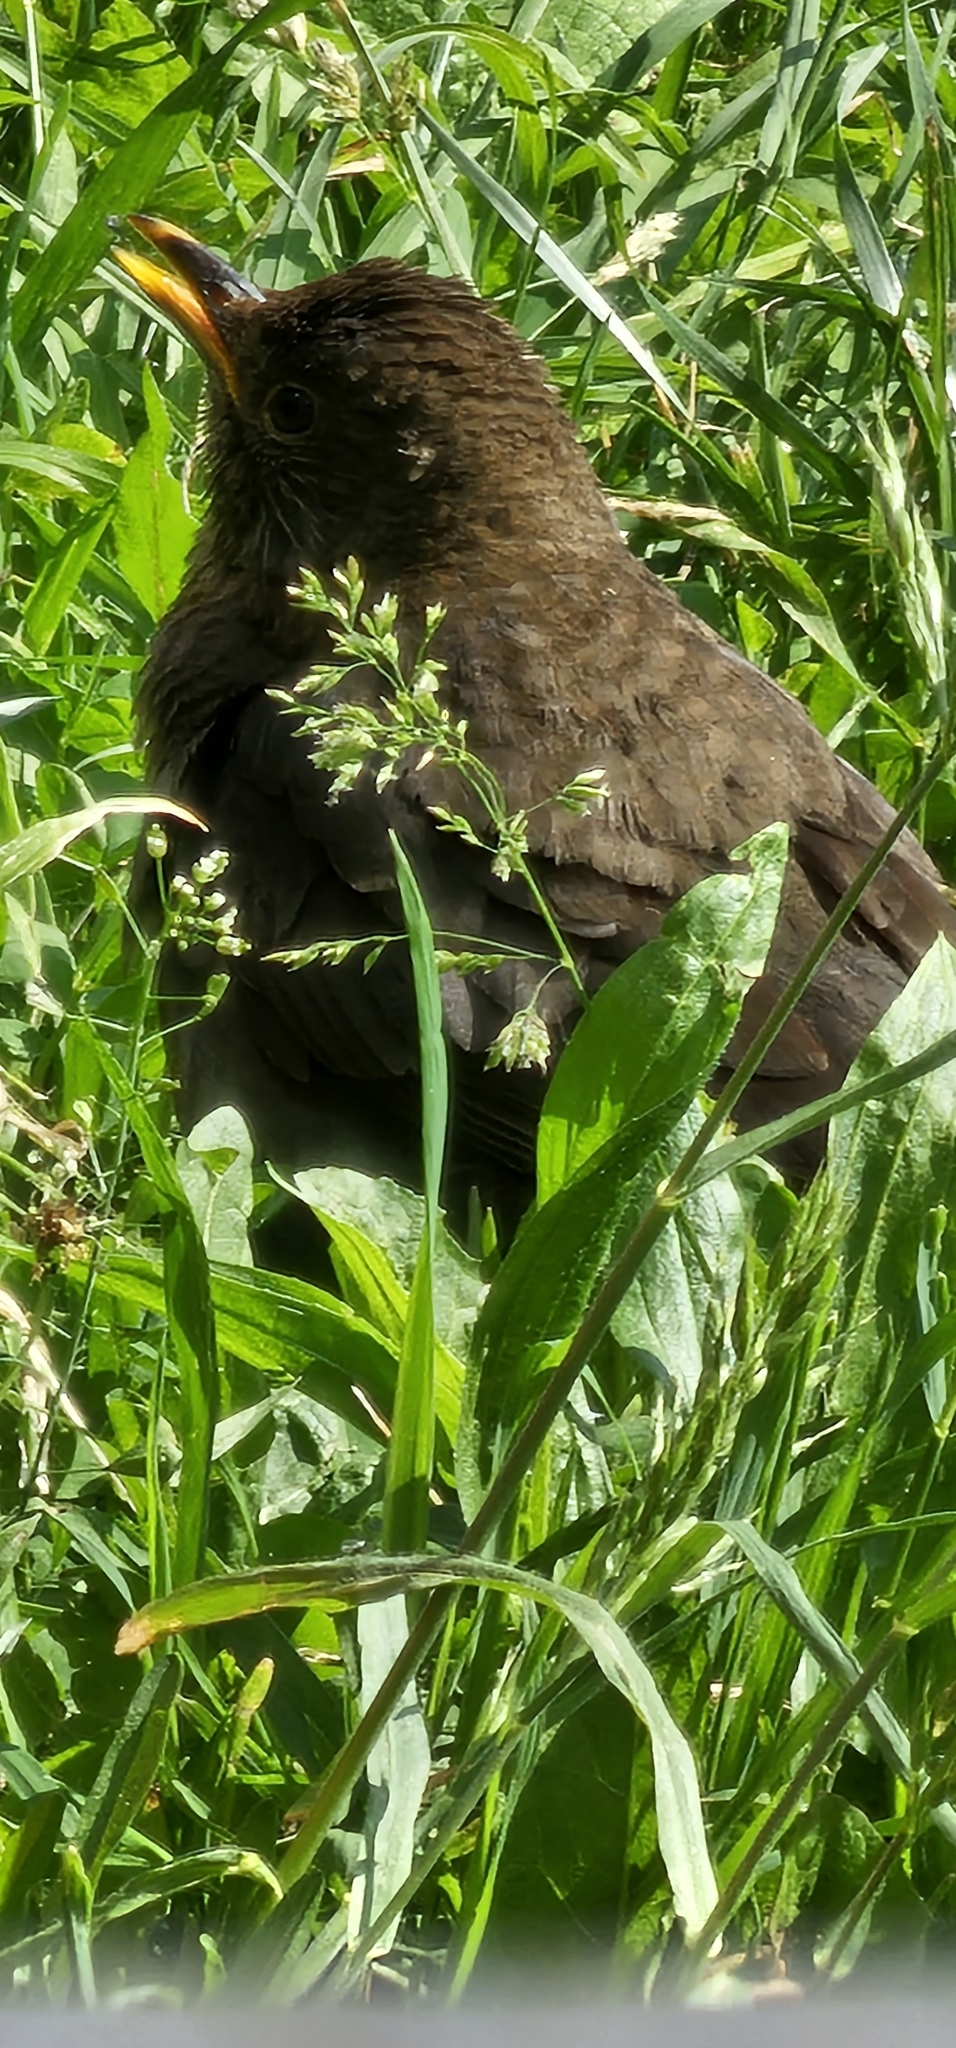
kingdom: Animalia
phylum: Chordata
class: Aves
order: Passeriformes
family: Turdidae
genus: Turdus
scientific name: Turdus merula
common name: Common blackbird
